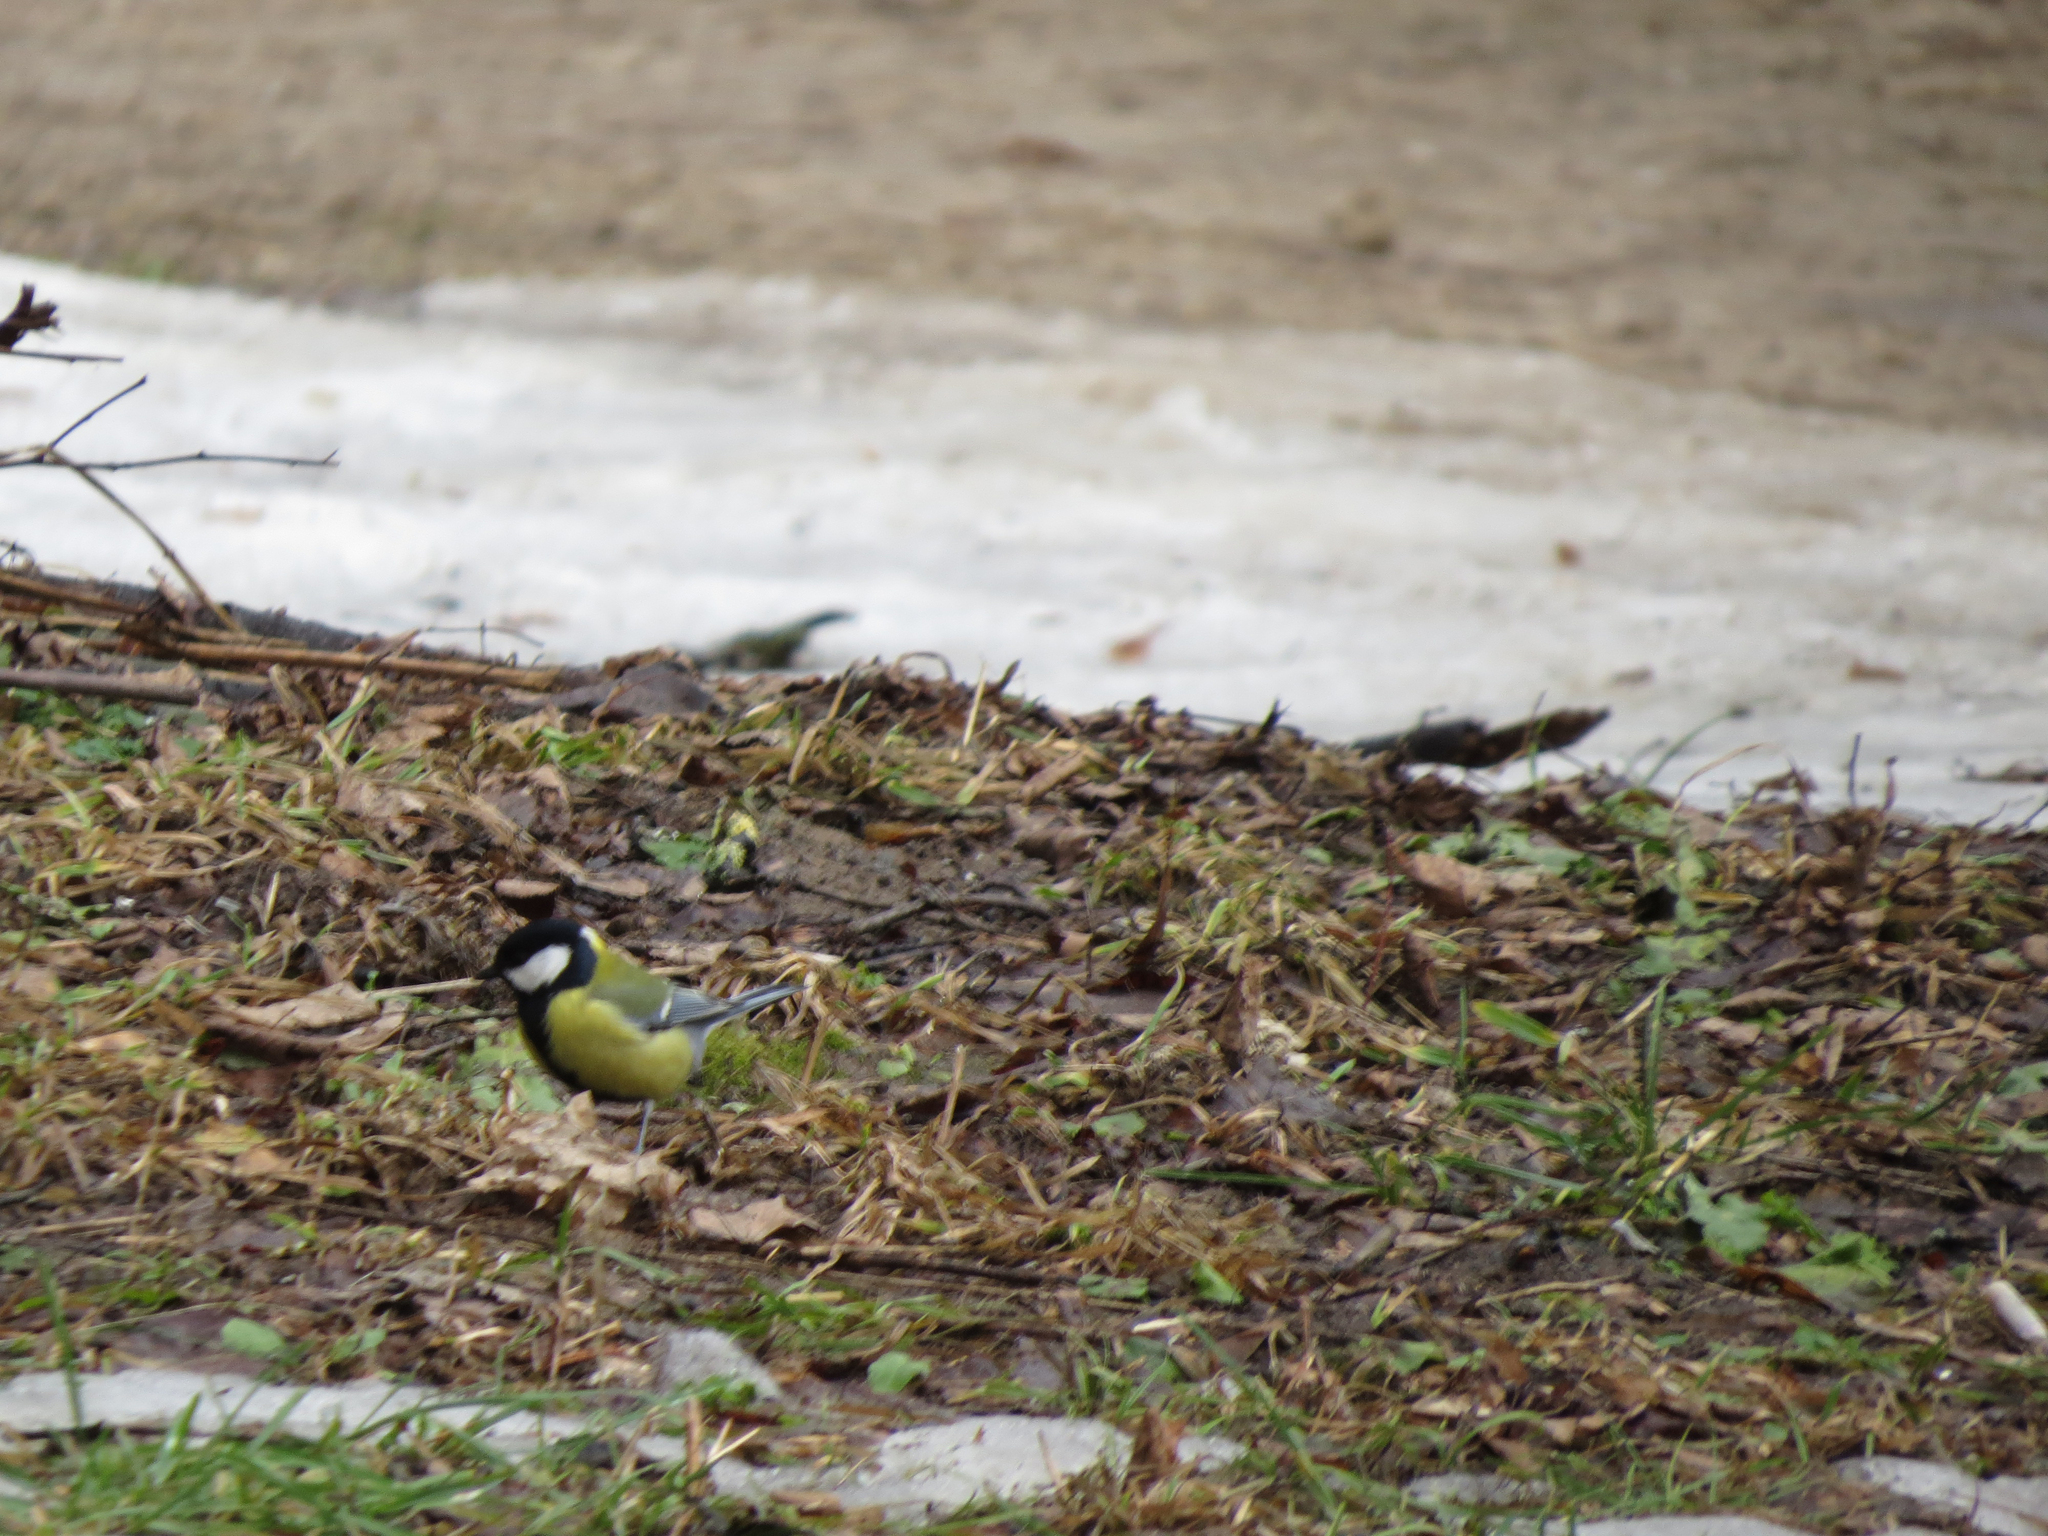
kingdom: Animalia
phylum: Chordata
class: Aves
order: Passeriformes
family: Paridae
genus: Parus
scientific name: Parus major
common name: Great tit
